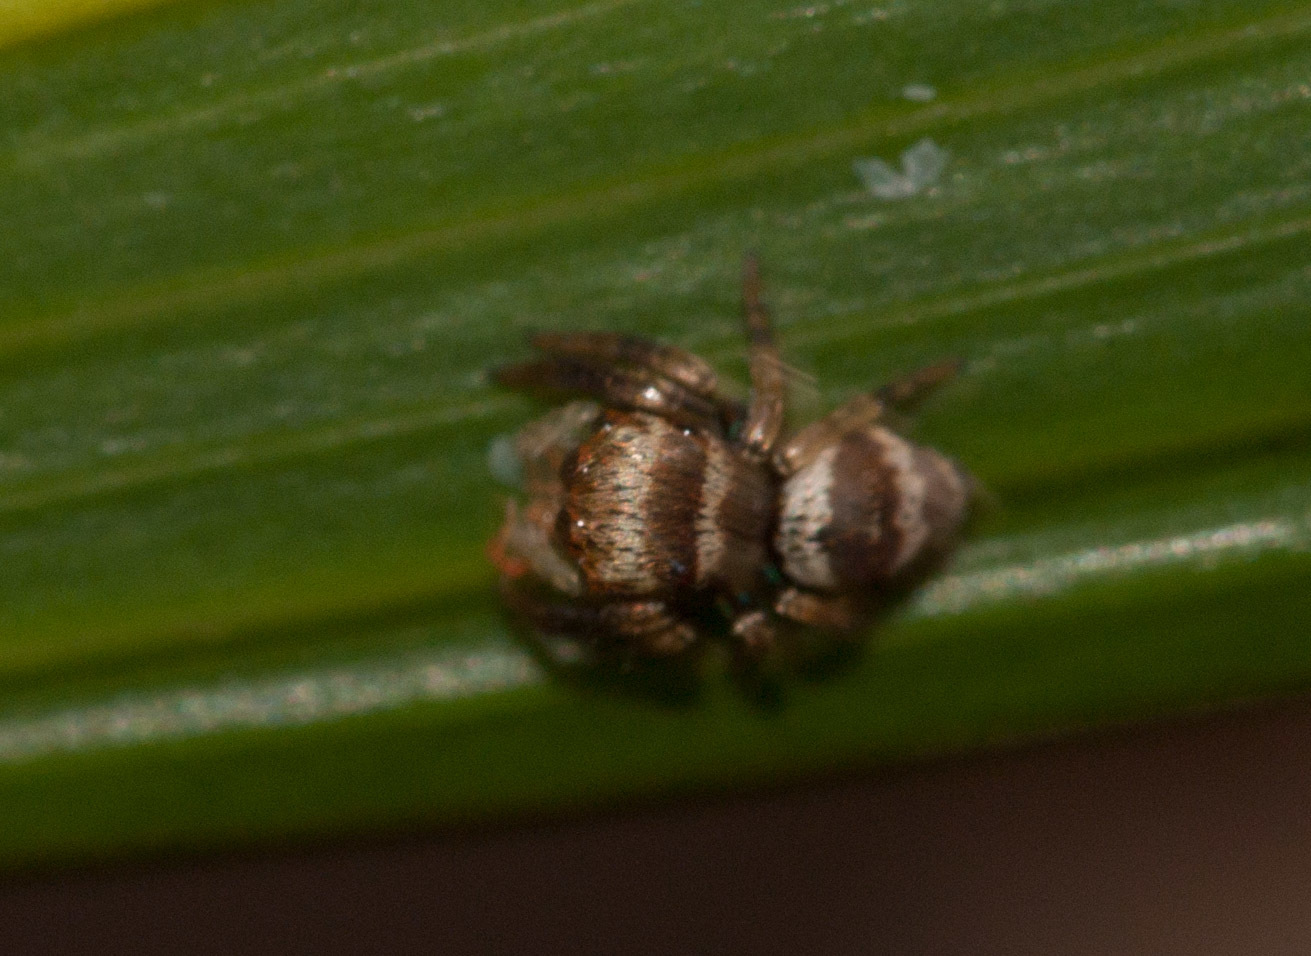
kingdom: Animalia
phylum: Arthropoda
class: Arachnida
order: Araneae
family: Salticidae
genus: Euryattus
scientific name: Euryattus bleekeri
